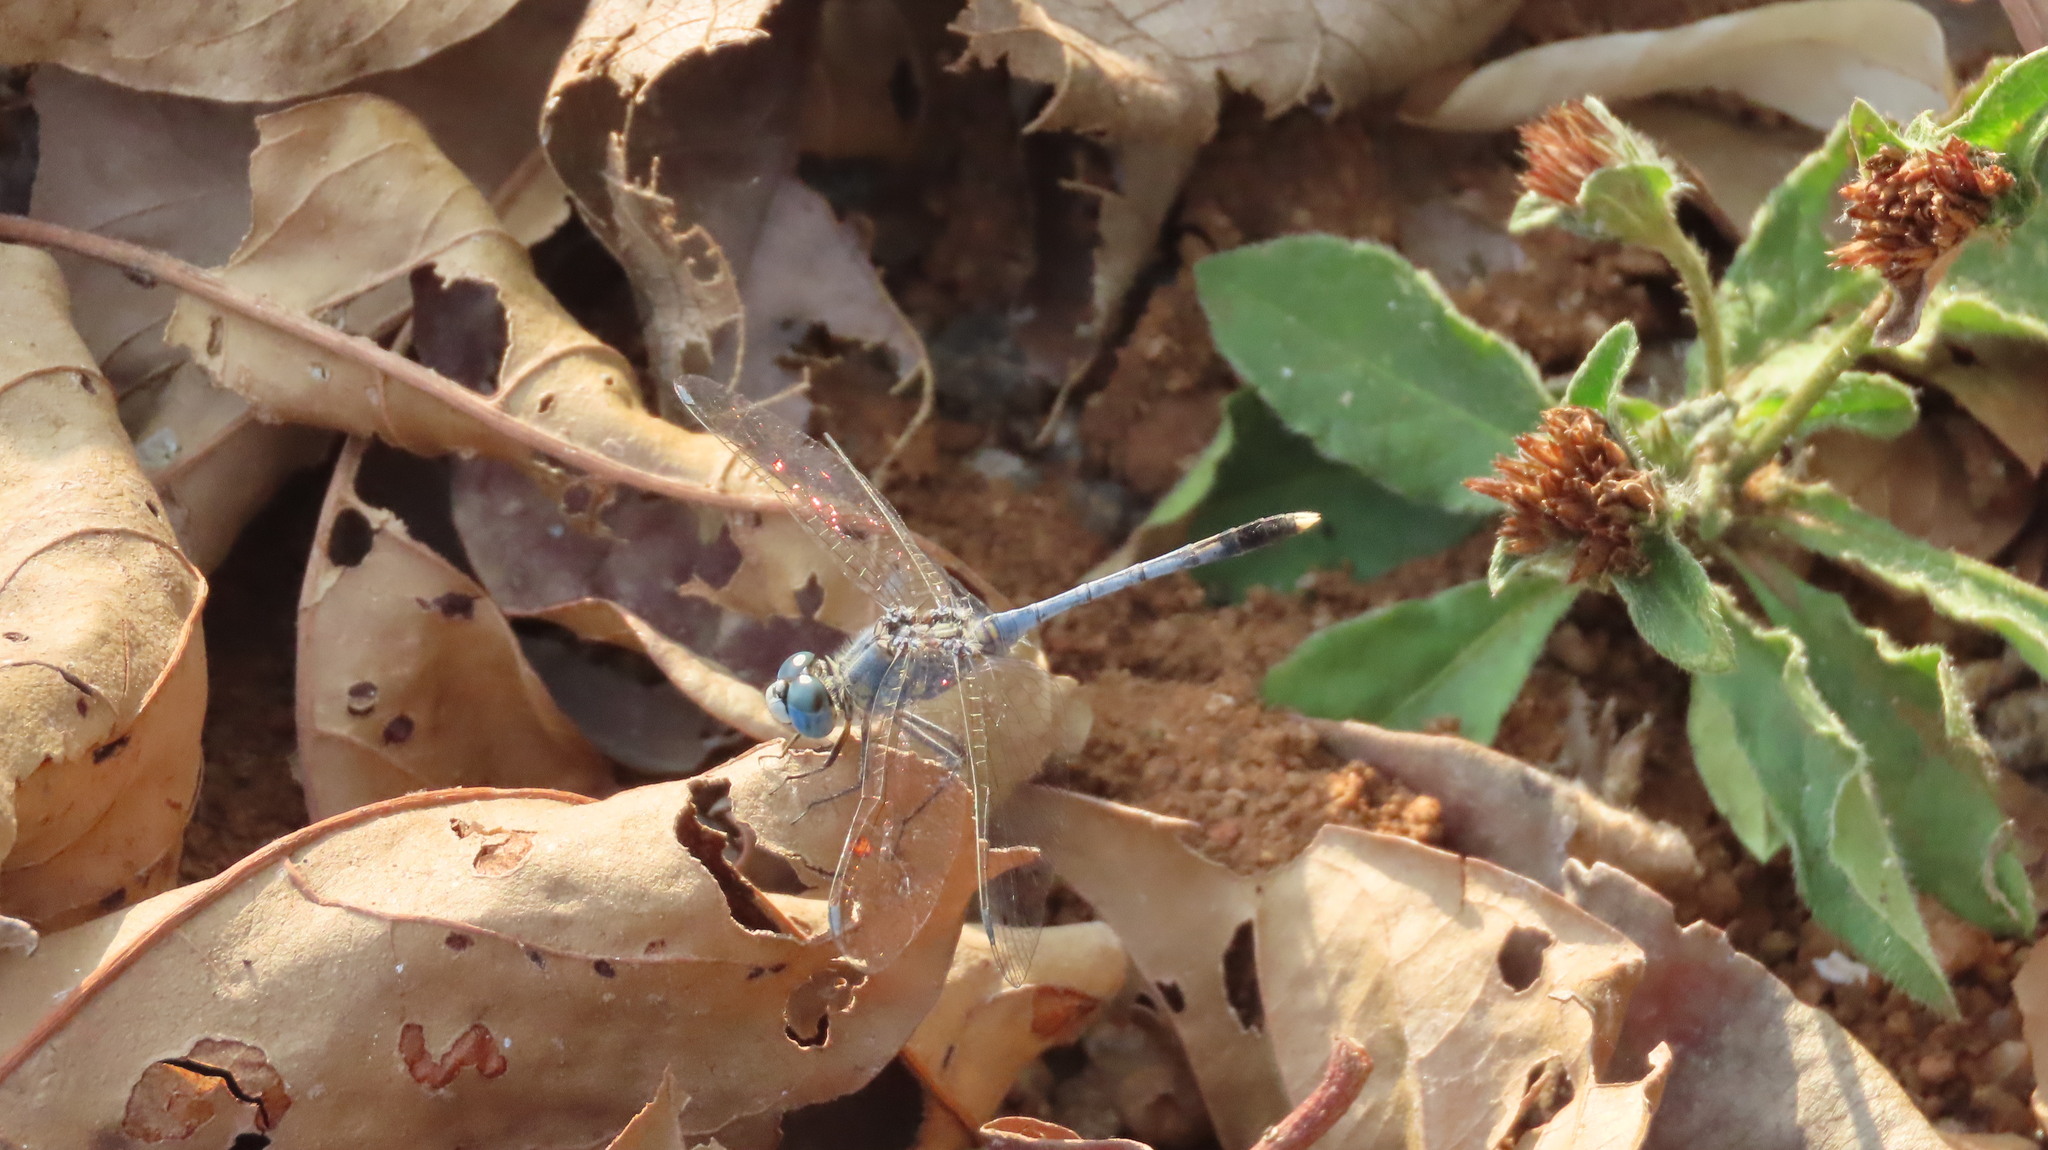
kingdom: Animalia
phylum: Arthropoda
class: Insecta
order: Odonata
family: Libellulidae
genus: Diplacodes
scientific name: Diplacodes trivialis
